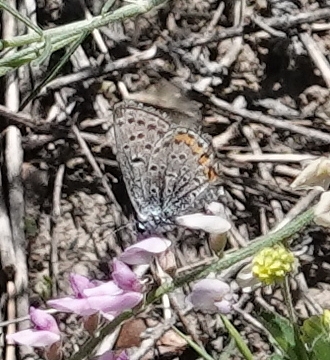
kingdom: Animalia
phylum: Arthropoda
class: Insecta
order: Lepidoptera
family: Lycaenidae
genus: Icaricia
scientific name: Icaricia lupini
